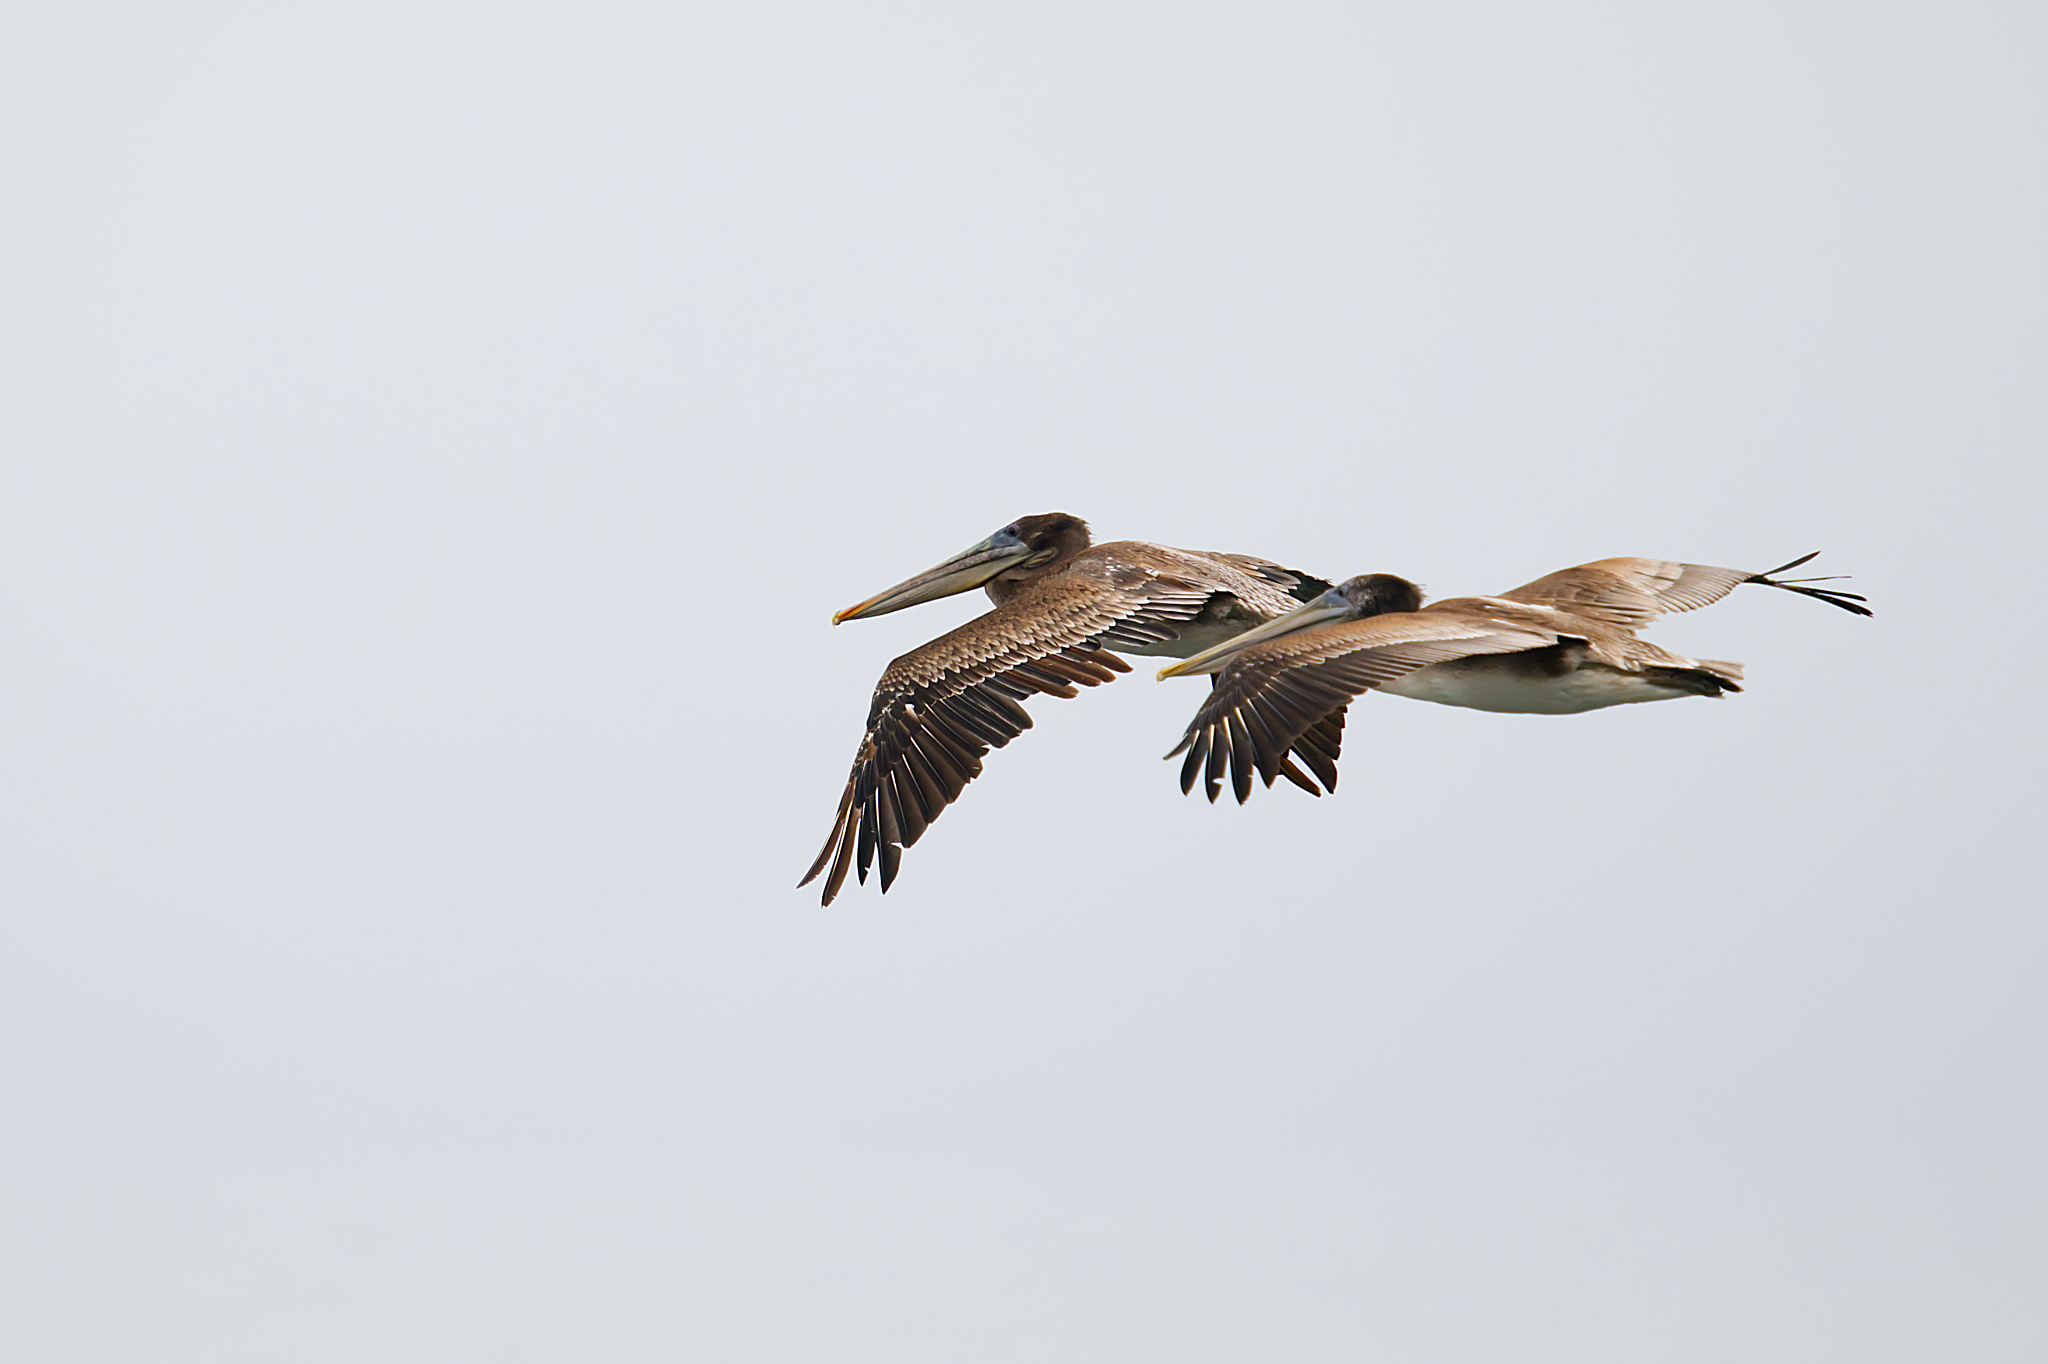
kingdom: Animalia
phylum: Chordata
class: Aves
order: Pelecaniformes
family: Pelecanidae
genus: Pelecanus
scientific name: Pelecanus occidentalis
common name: Brown pelican
